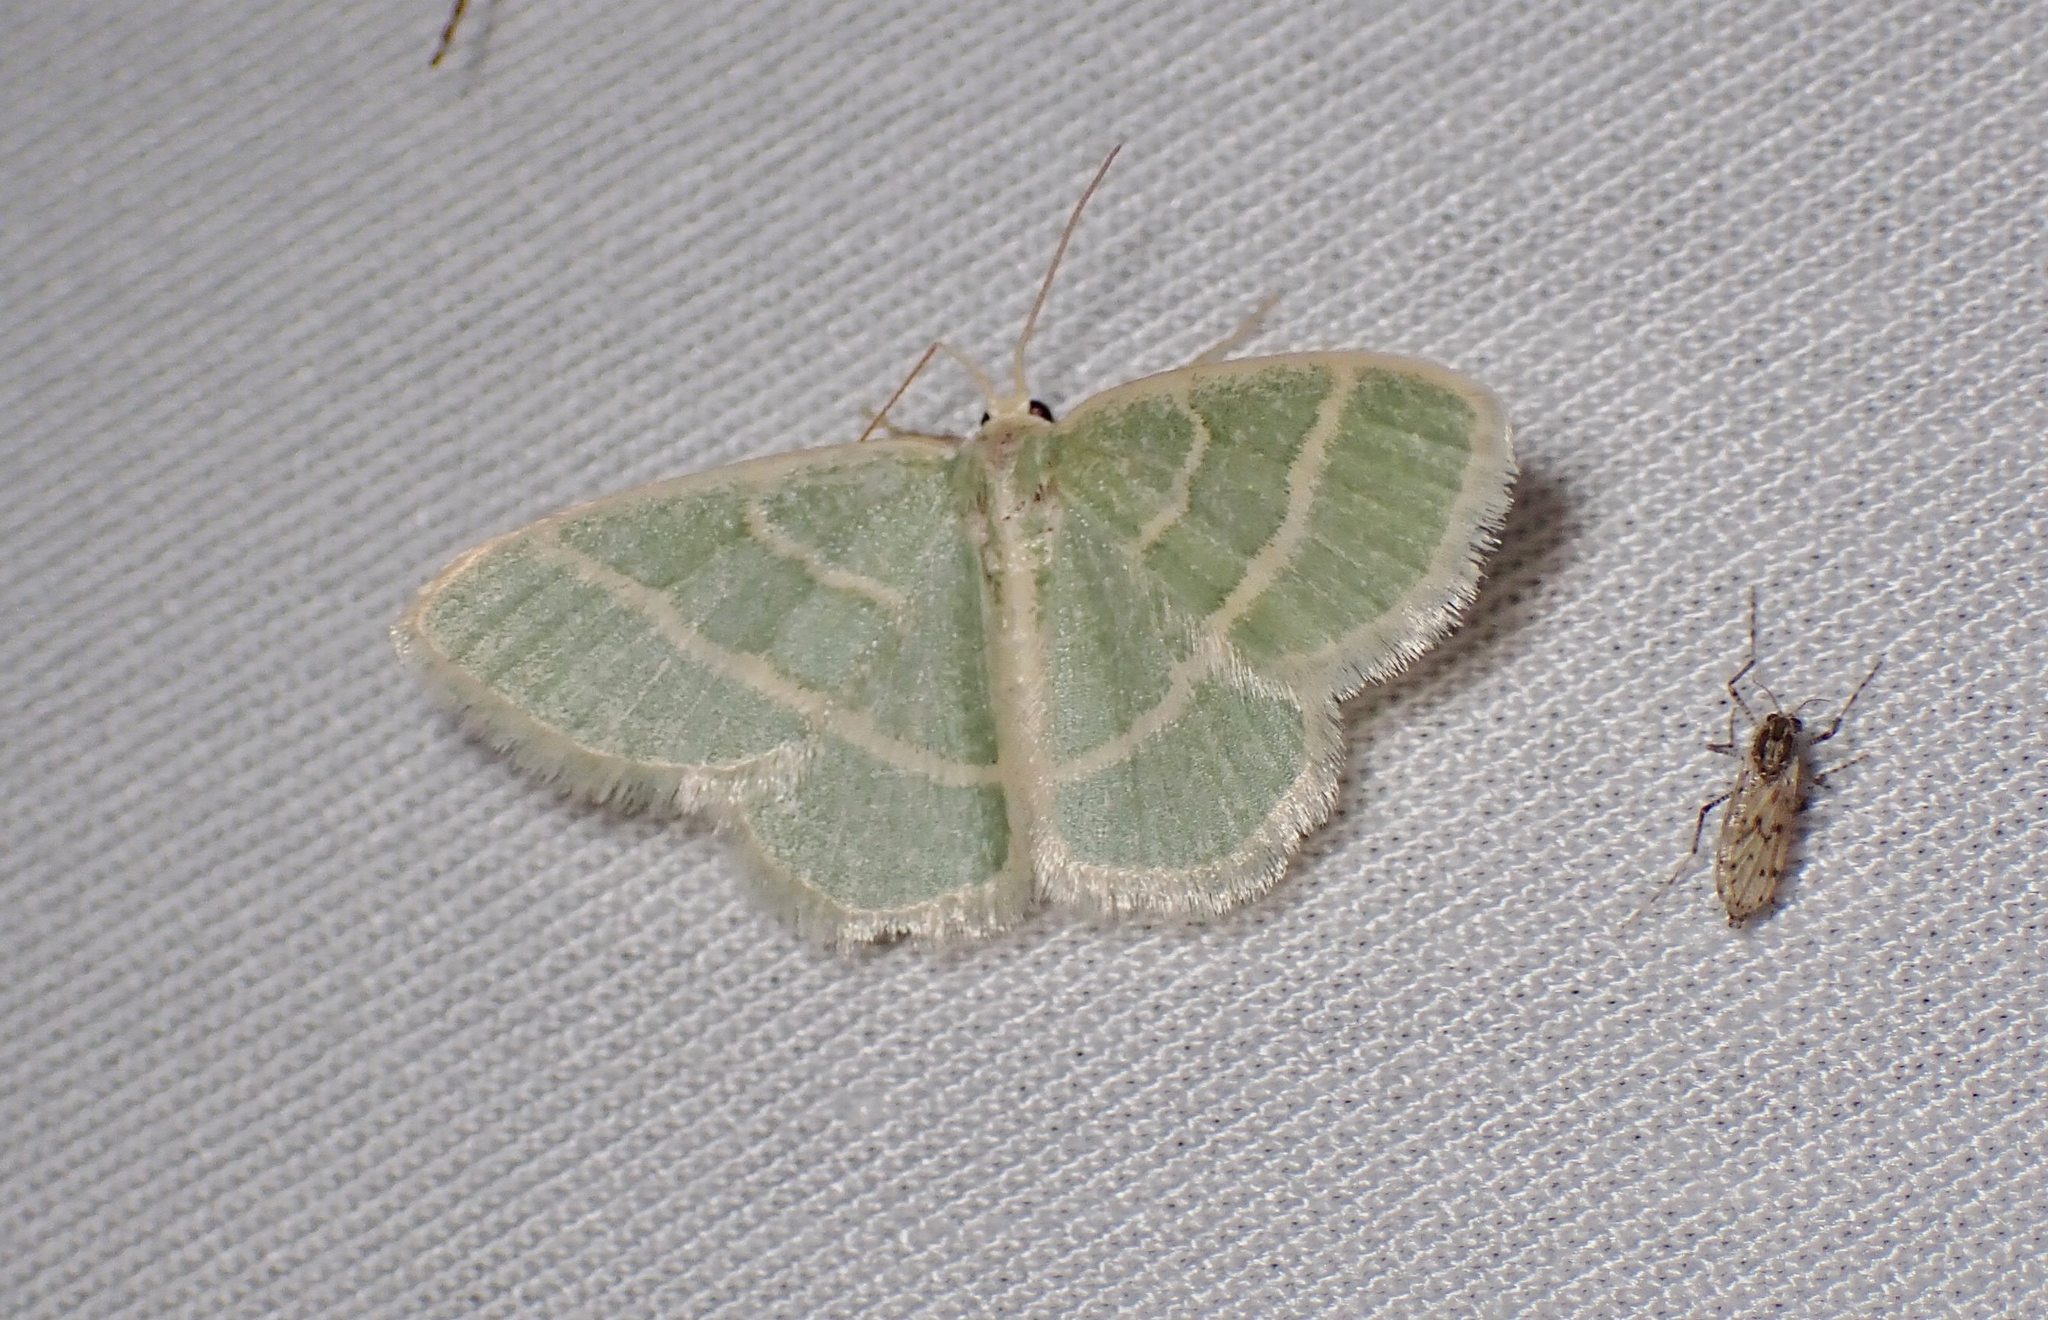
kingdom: Animalia
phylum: Arthropoda
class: Insecta
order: Lepidoptera
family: Geometridae
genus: Chlorochlamys
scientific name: Chlorochlamys chloroleucaria
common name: Blackberry looper
